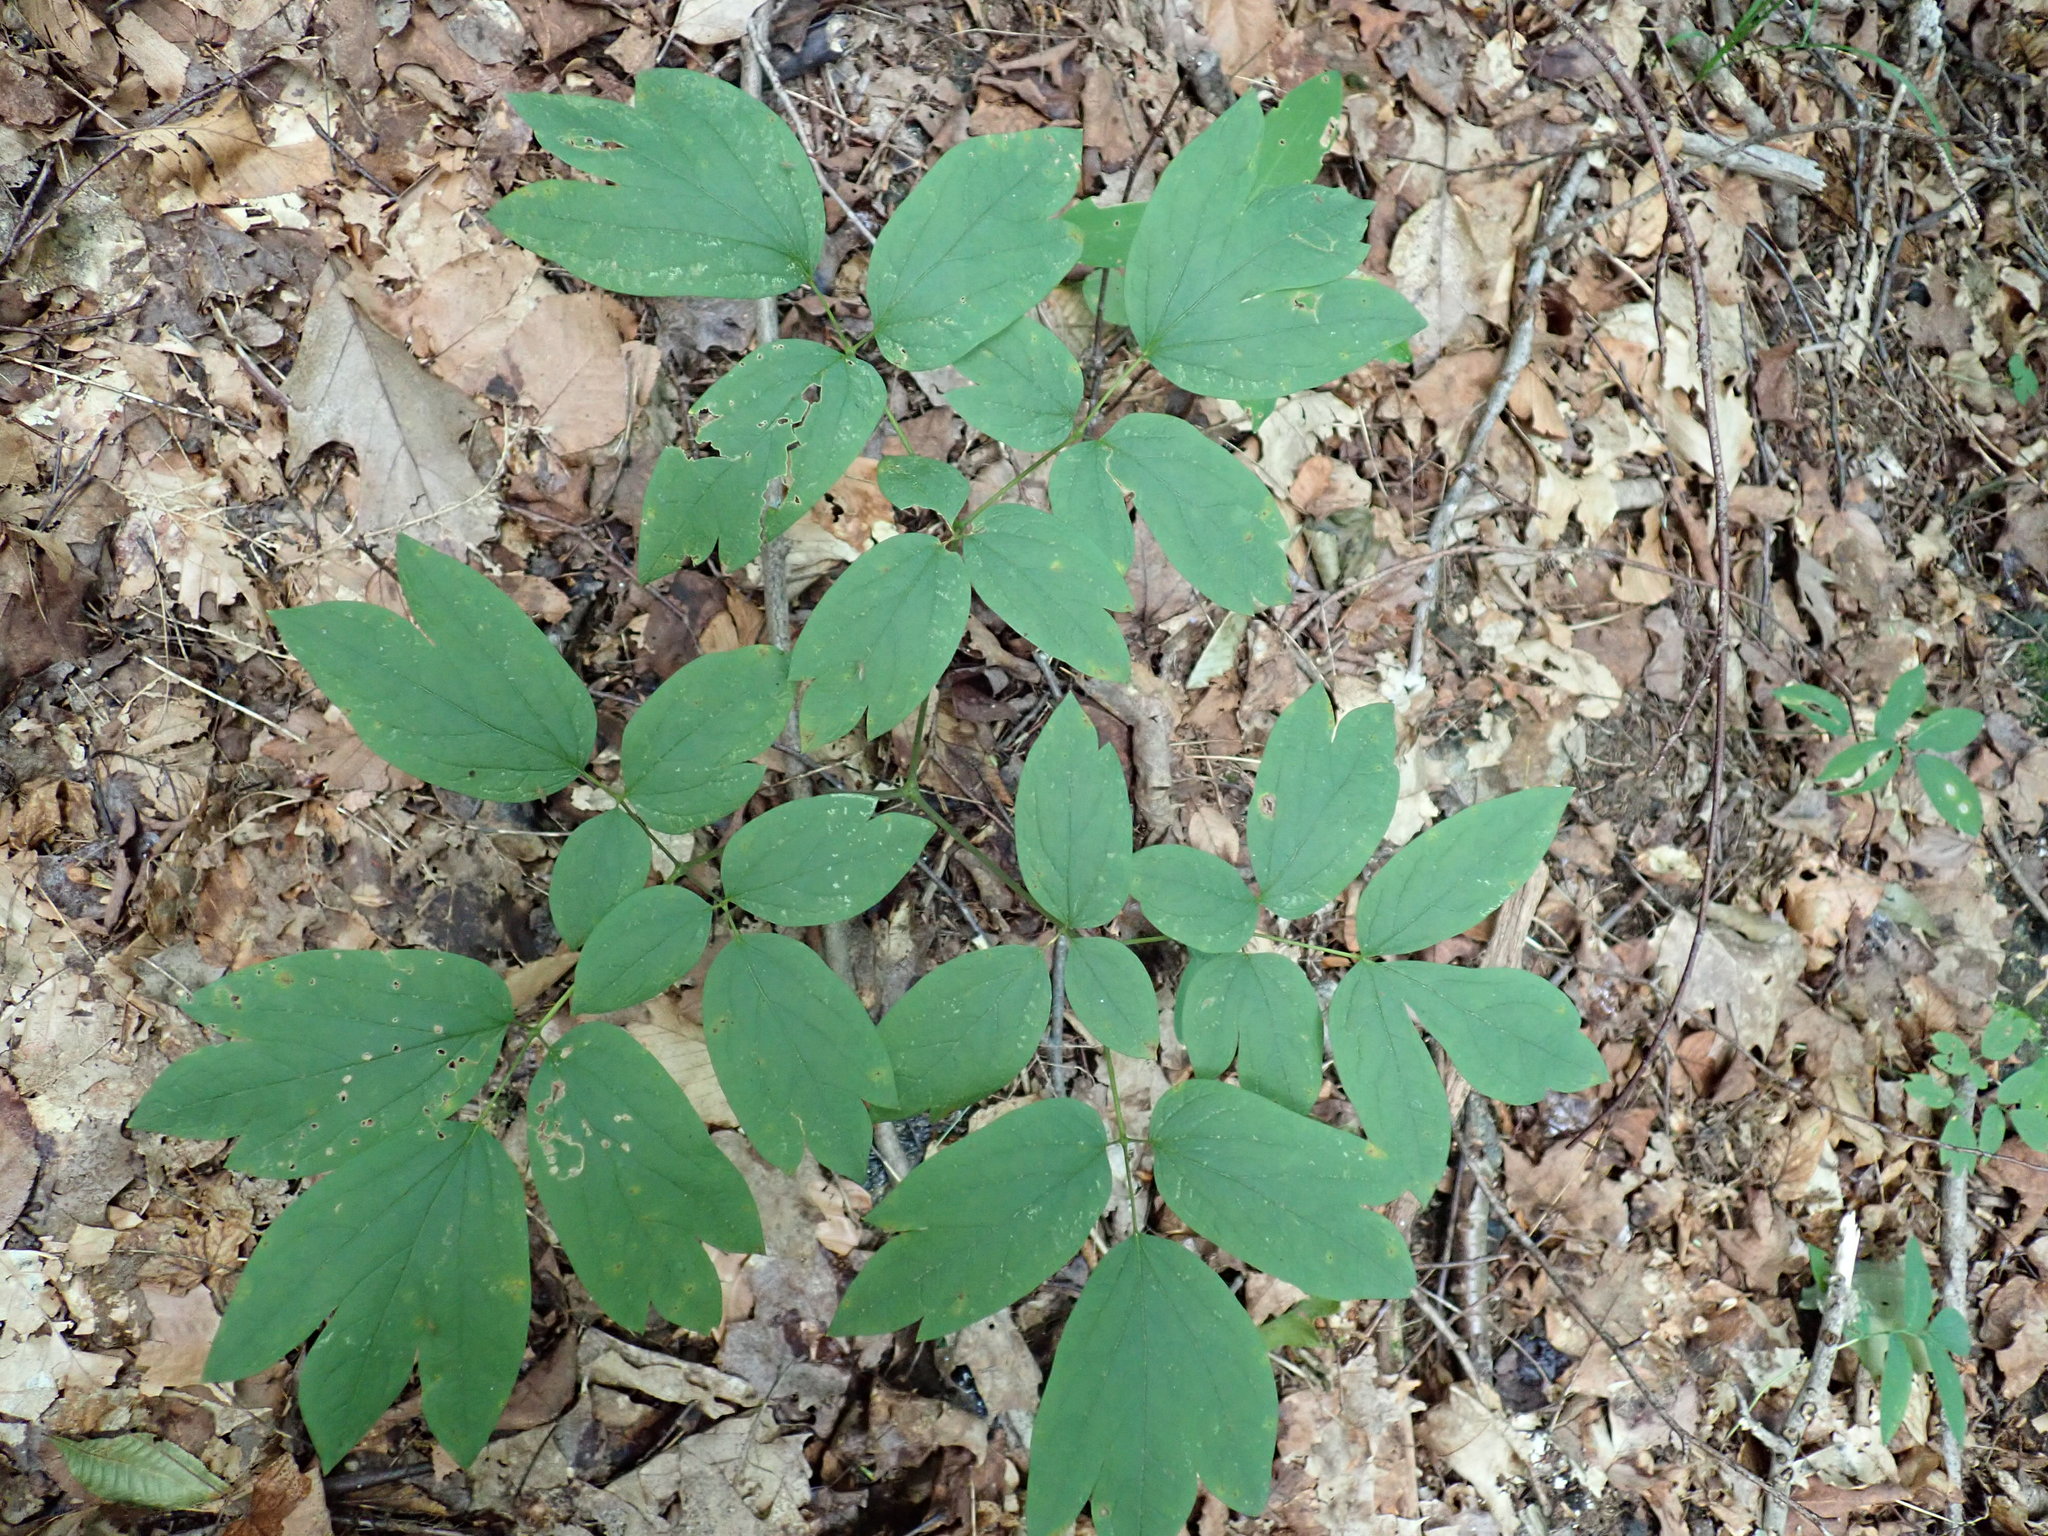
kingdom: Plantae
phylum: Tracheophyta
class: Magnoliopsida
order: Ranunculales
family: Berberidaceae
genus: Caulophyllum
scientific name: Caulophyllum
